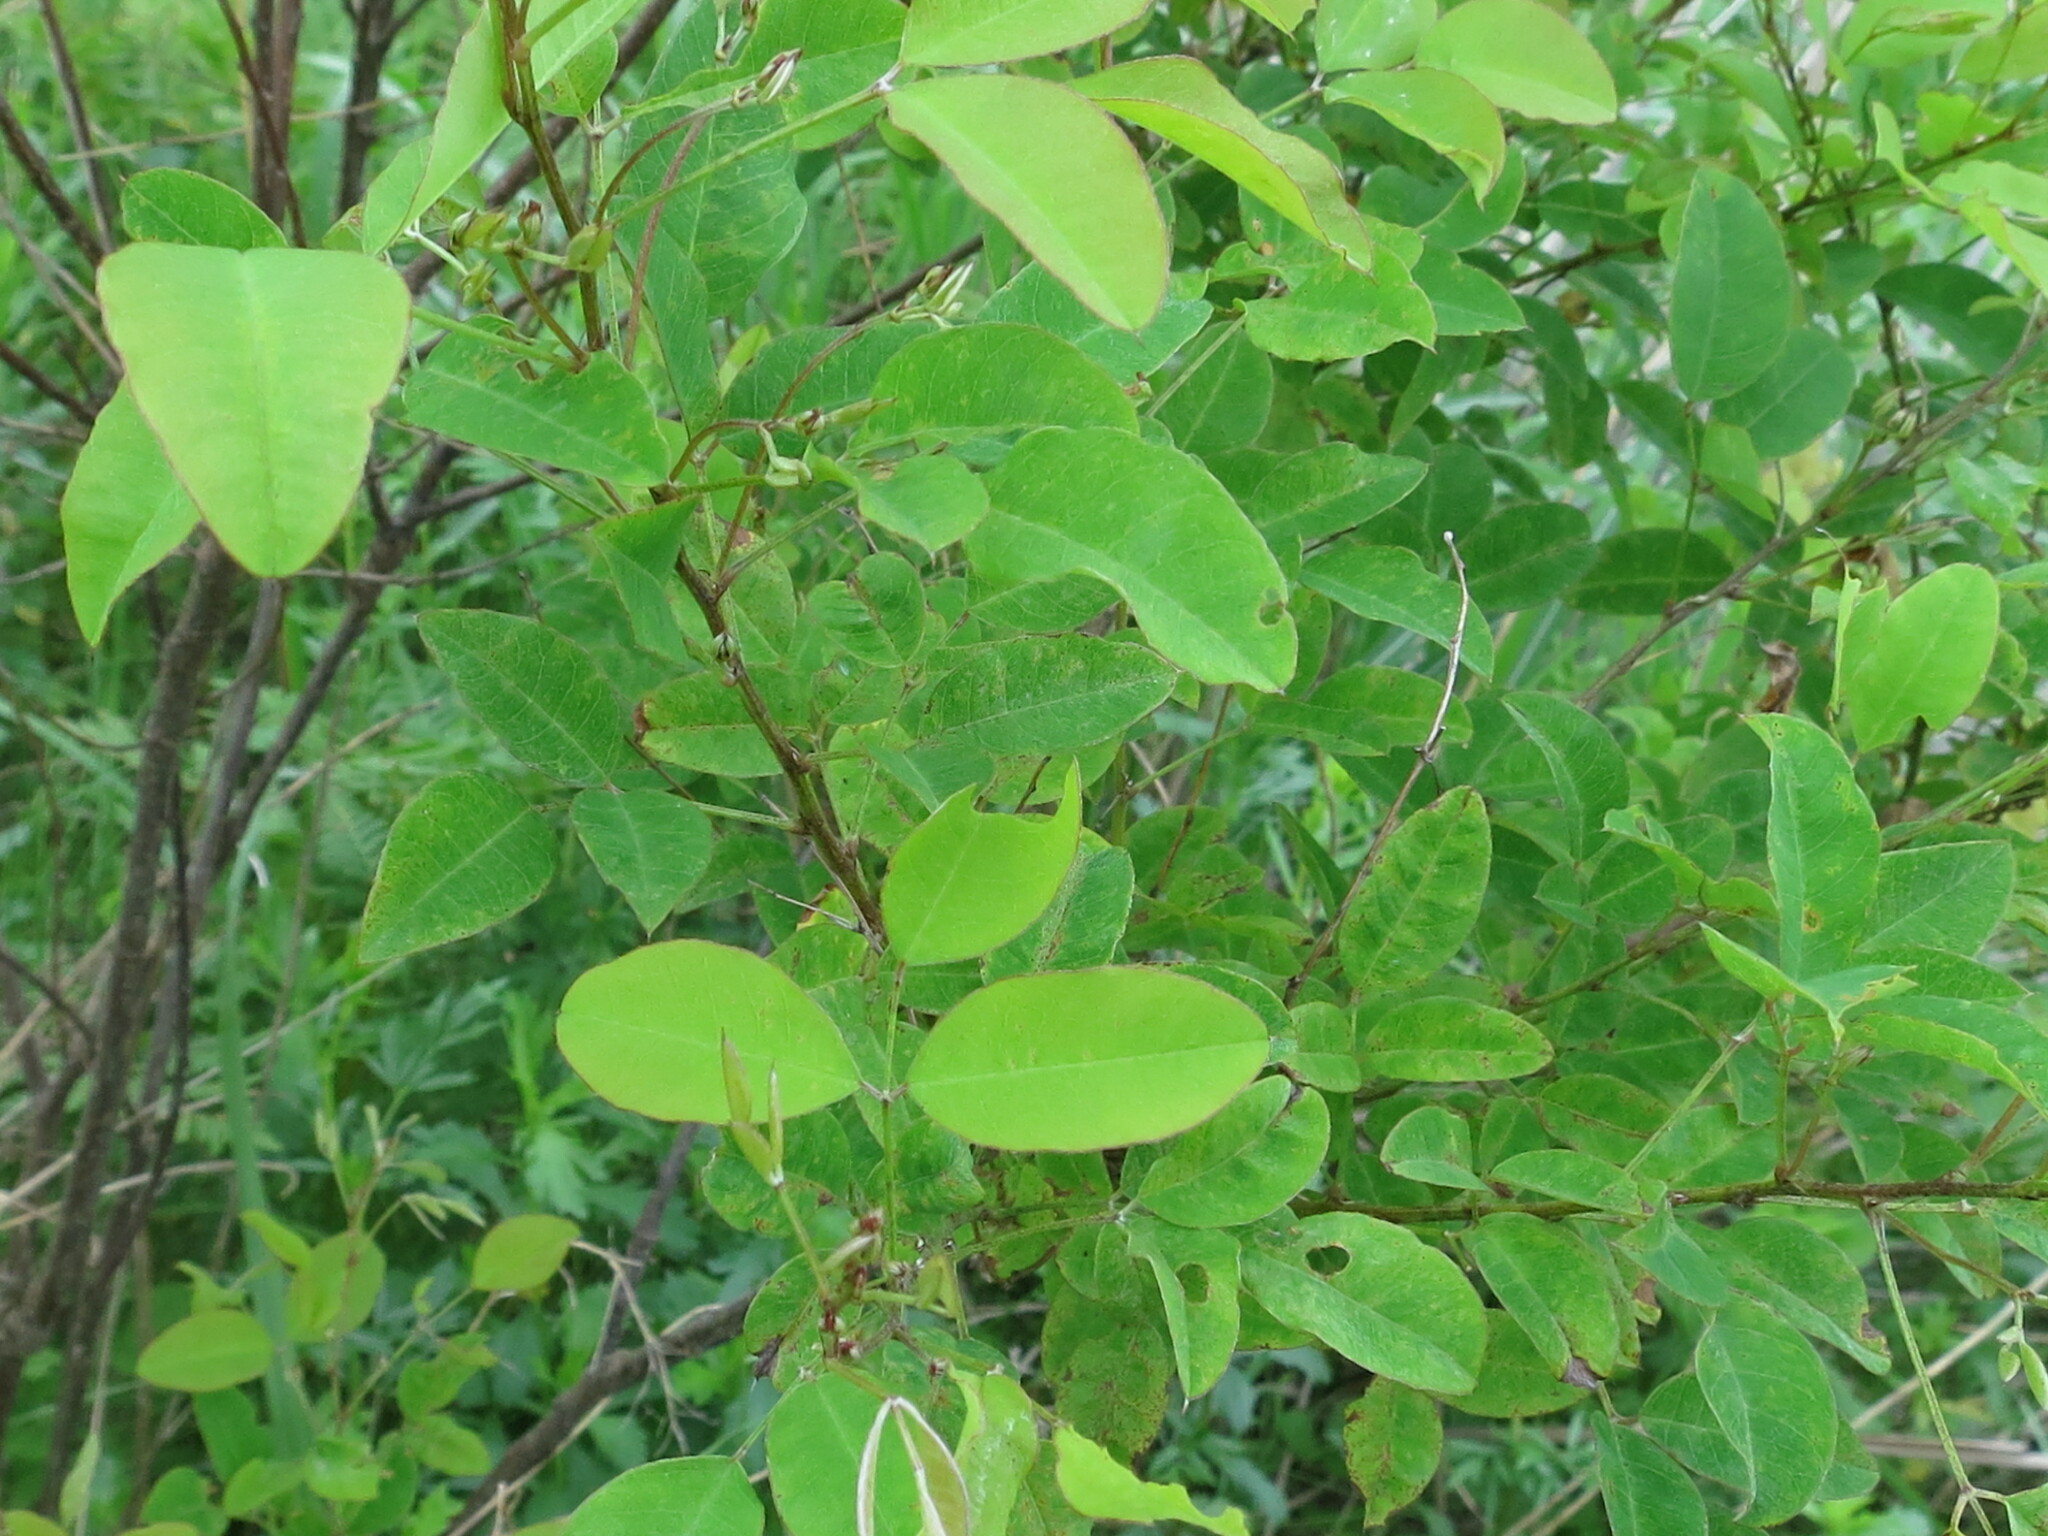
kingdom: Plantae
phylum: Tracheophyta
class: Magnoliopsida
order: Fabales
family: Fabaceae
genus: Lespedeza
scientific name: Lespedeza bicolor
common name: Shrub lespedeza
